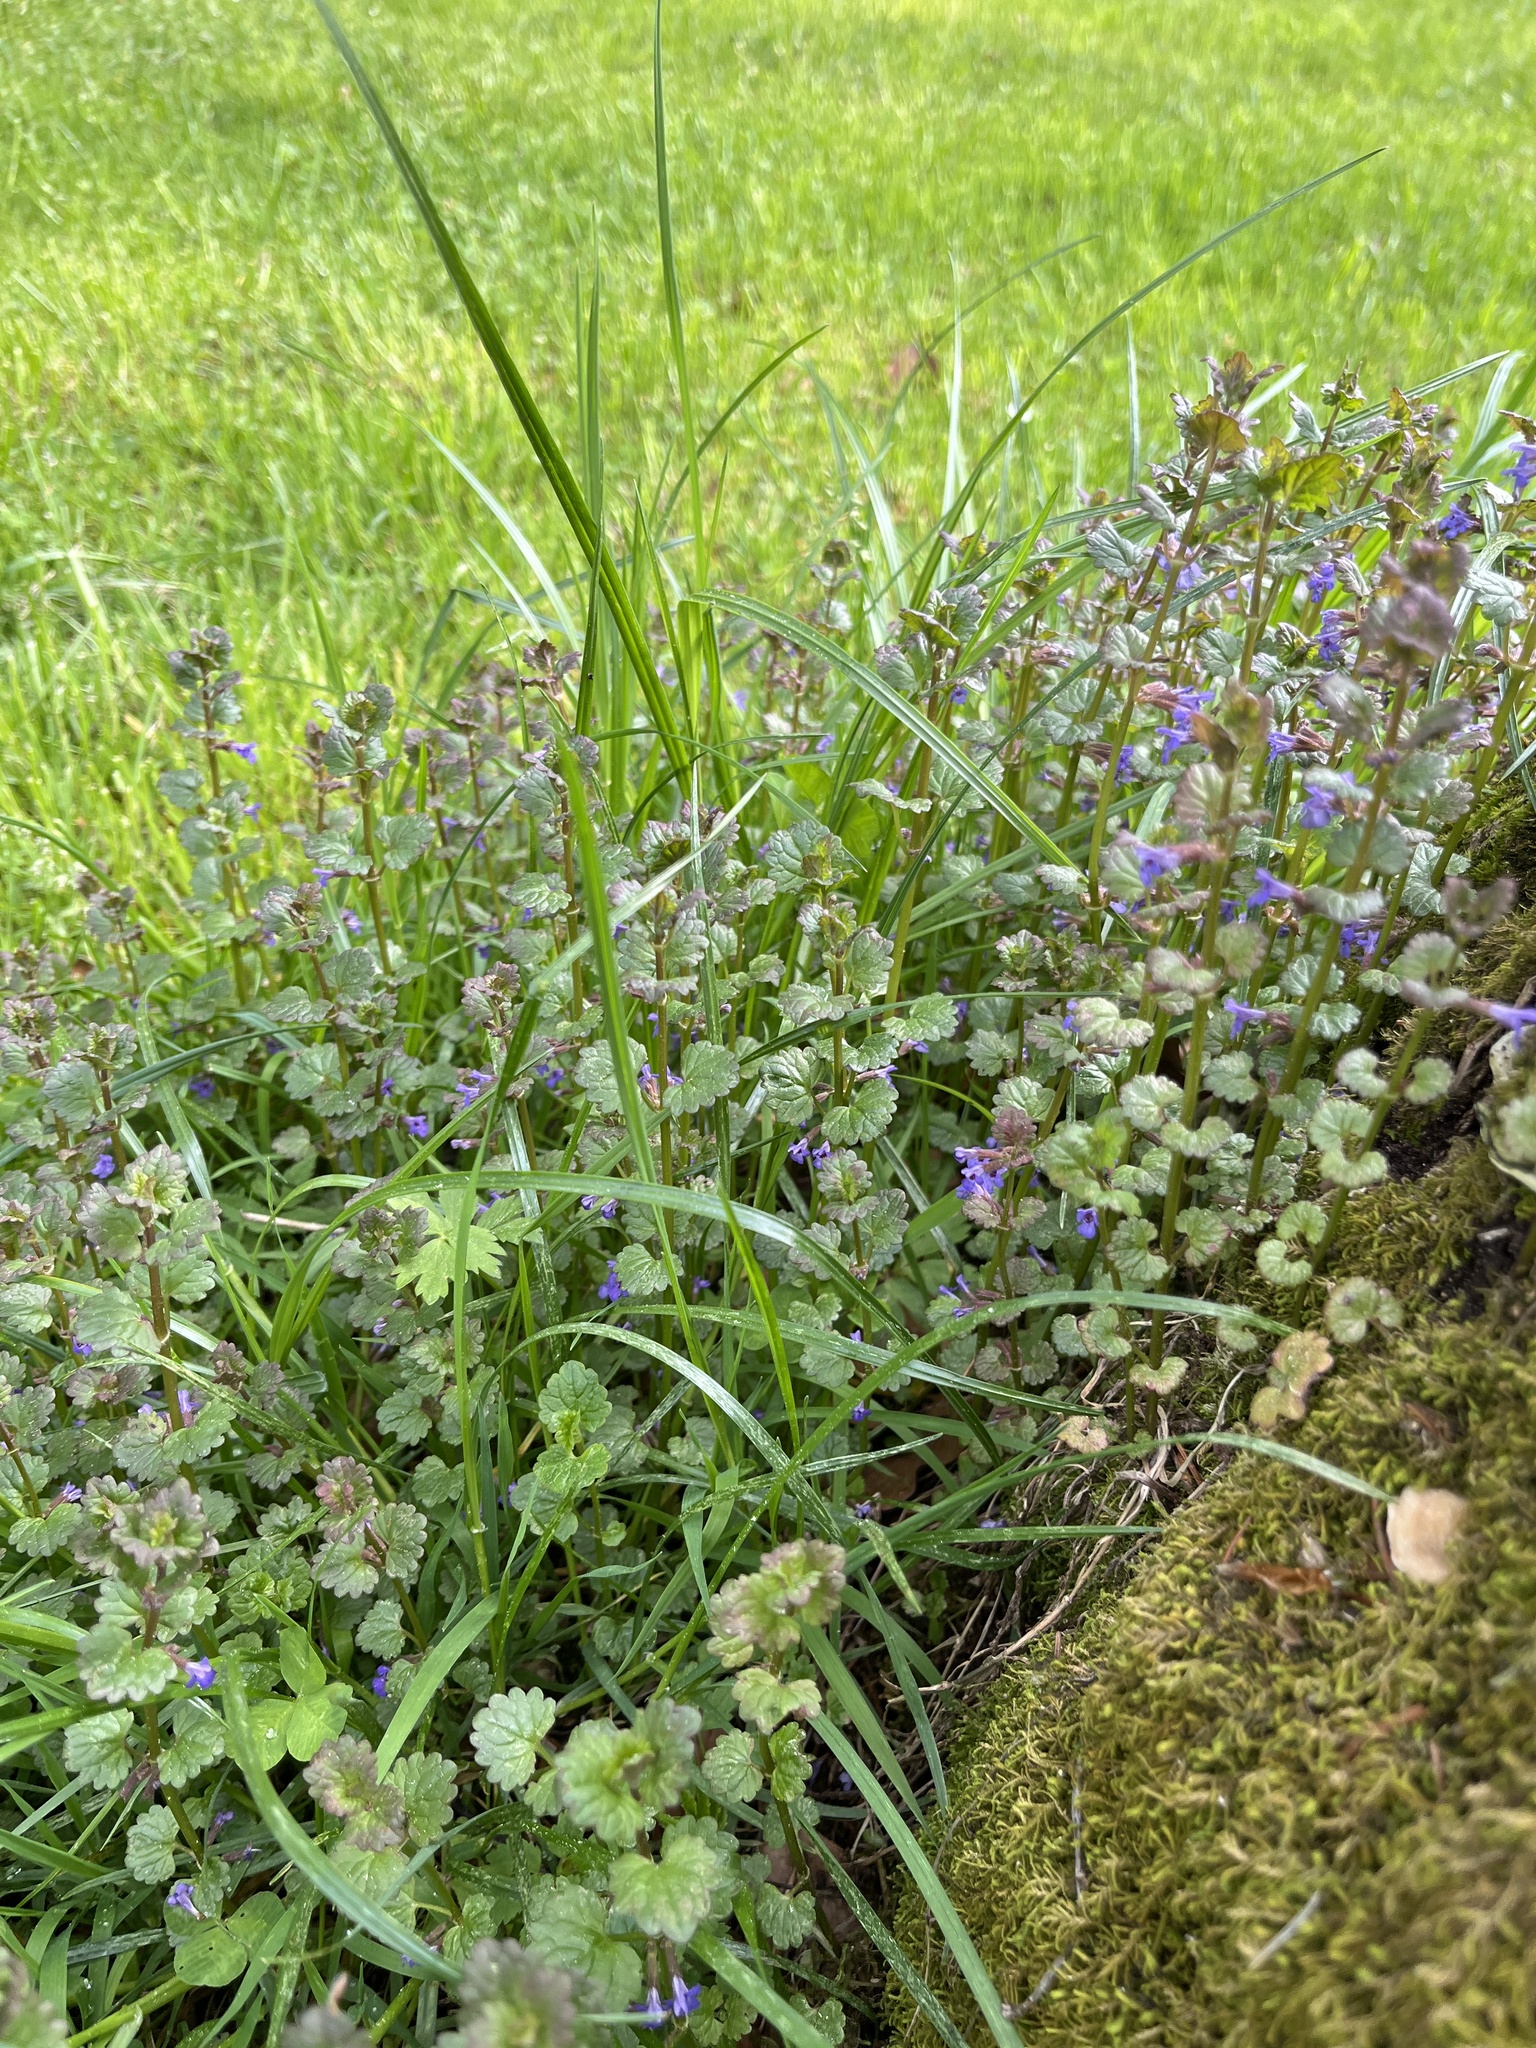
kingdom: Plantae
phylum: Tracheophyta
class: Magnoliopsida
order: Lamiales
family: Lamiaceae
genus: Glechoma
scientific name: Glechoma hederacea
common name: Ground ivy
